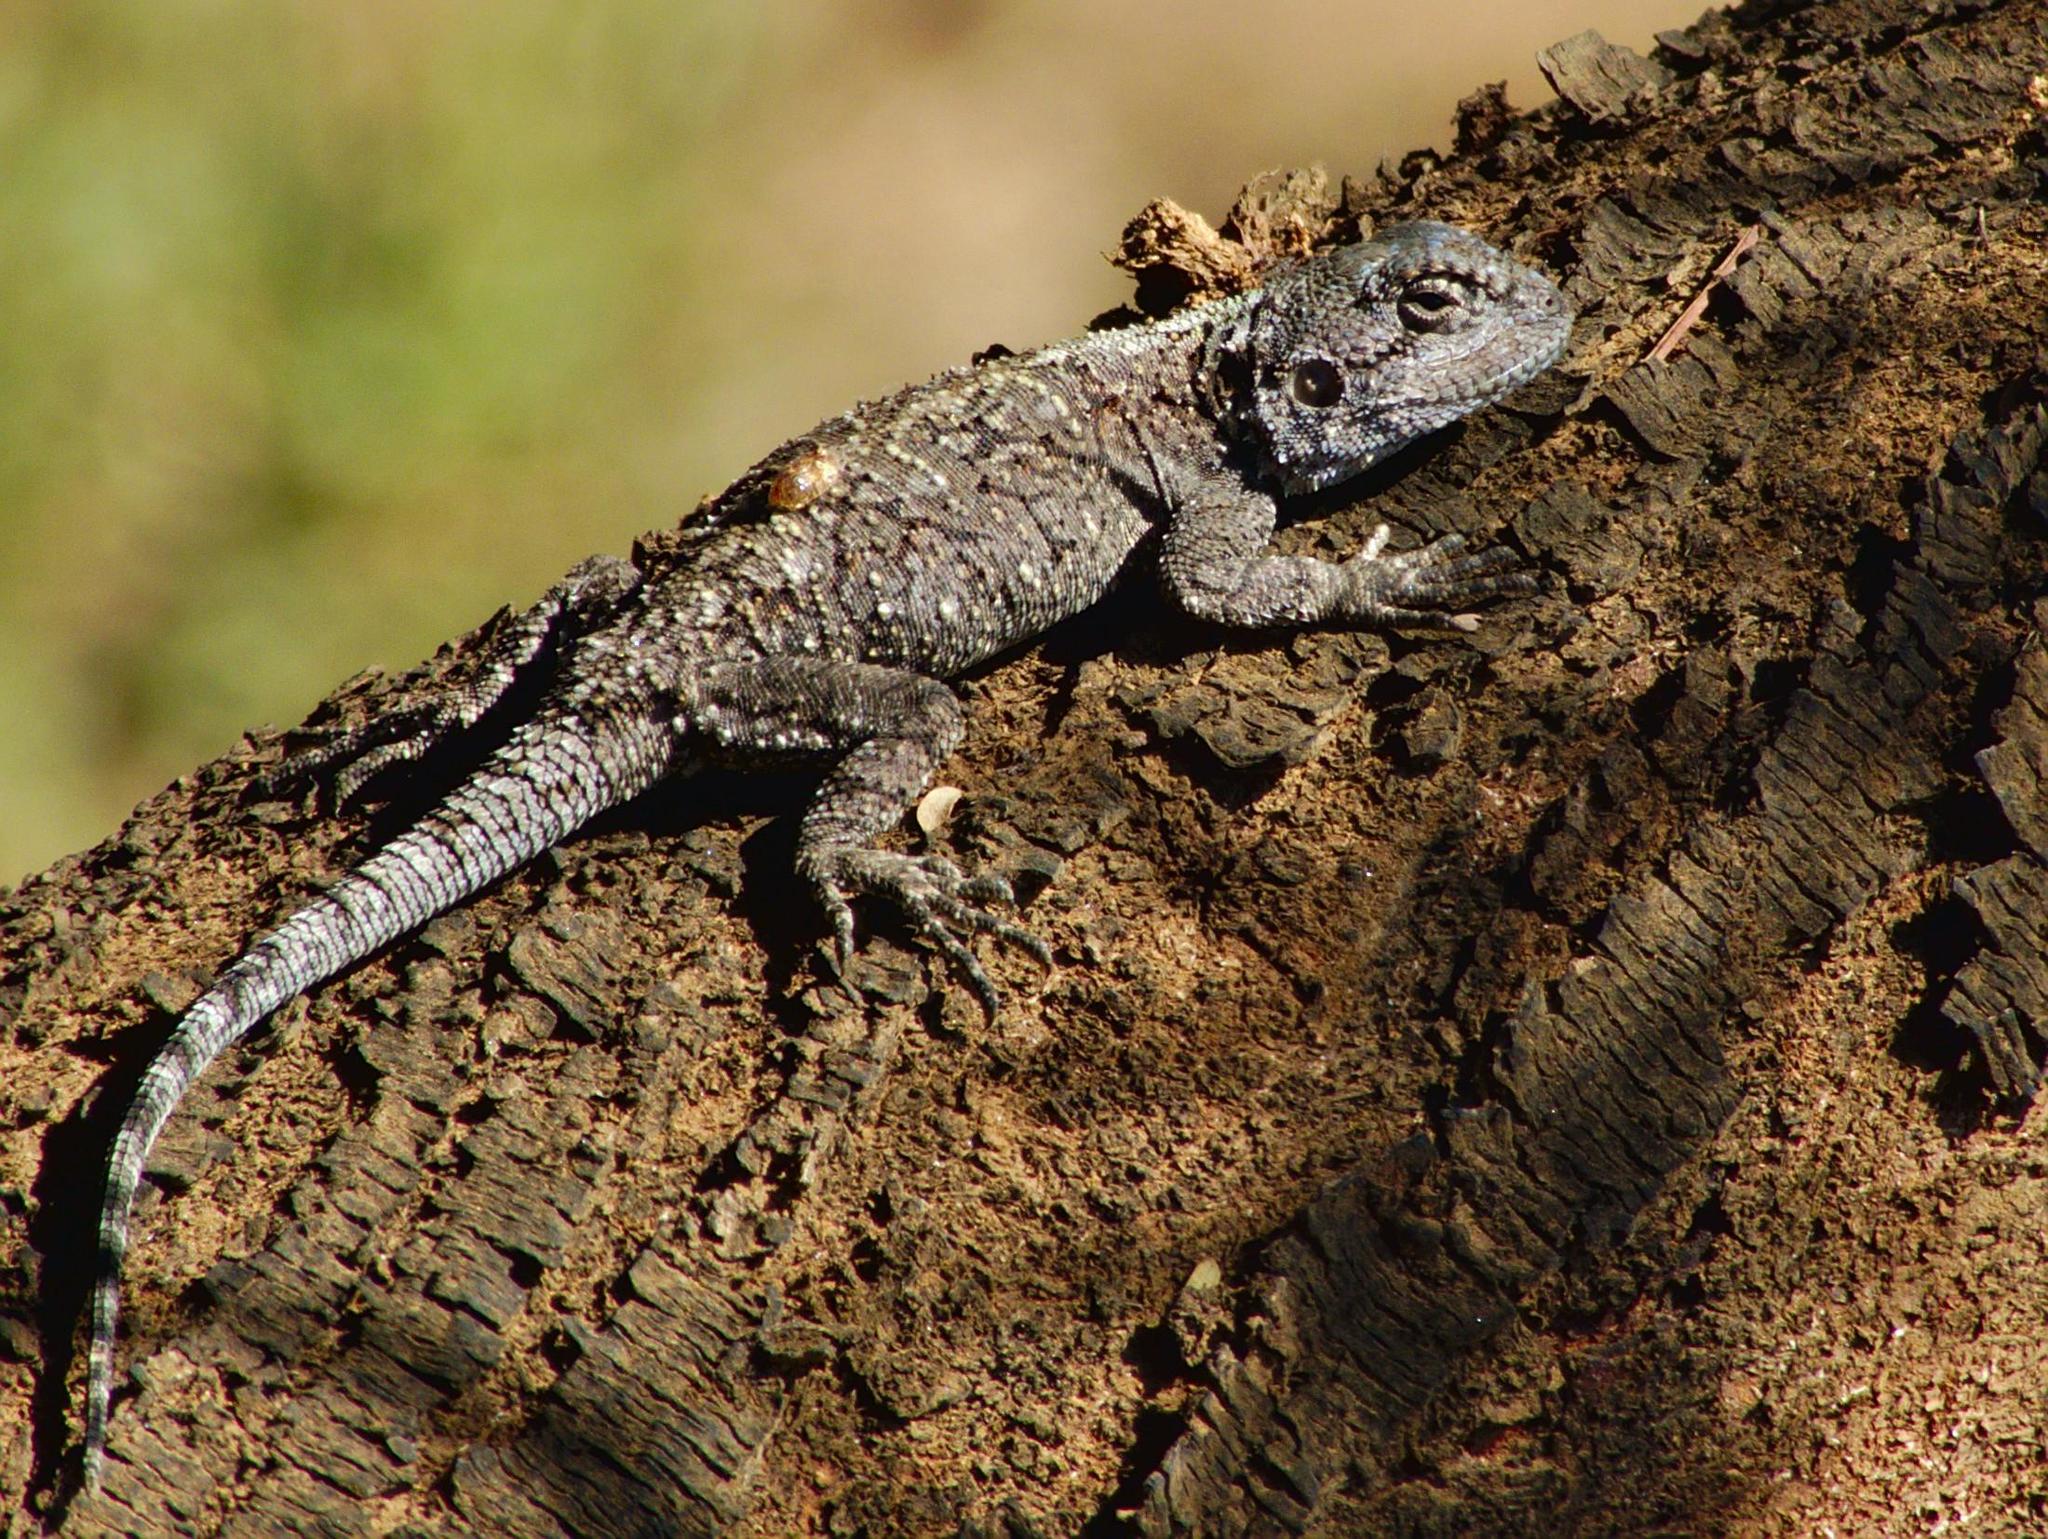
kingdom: Animalia
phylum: Chordata
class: Squamata
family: Agamidae
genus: Acanthocercus
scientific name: Acanthocercus atricollis
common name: Southern tree agama
